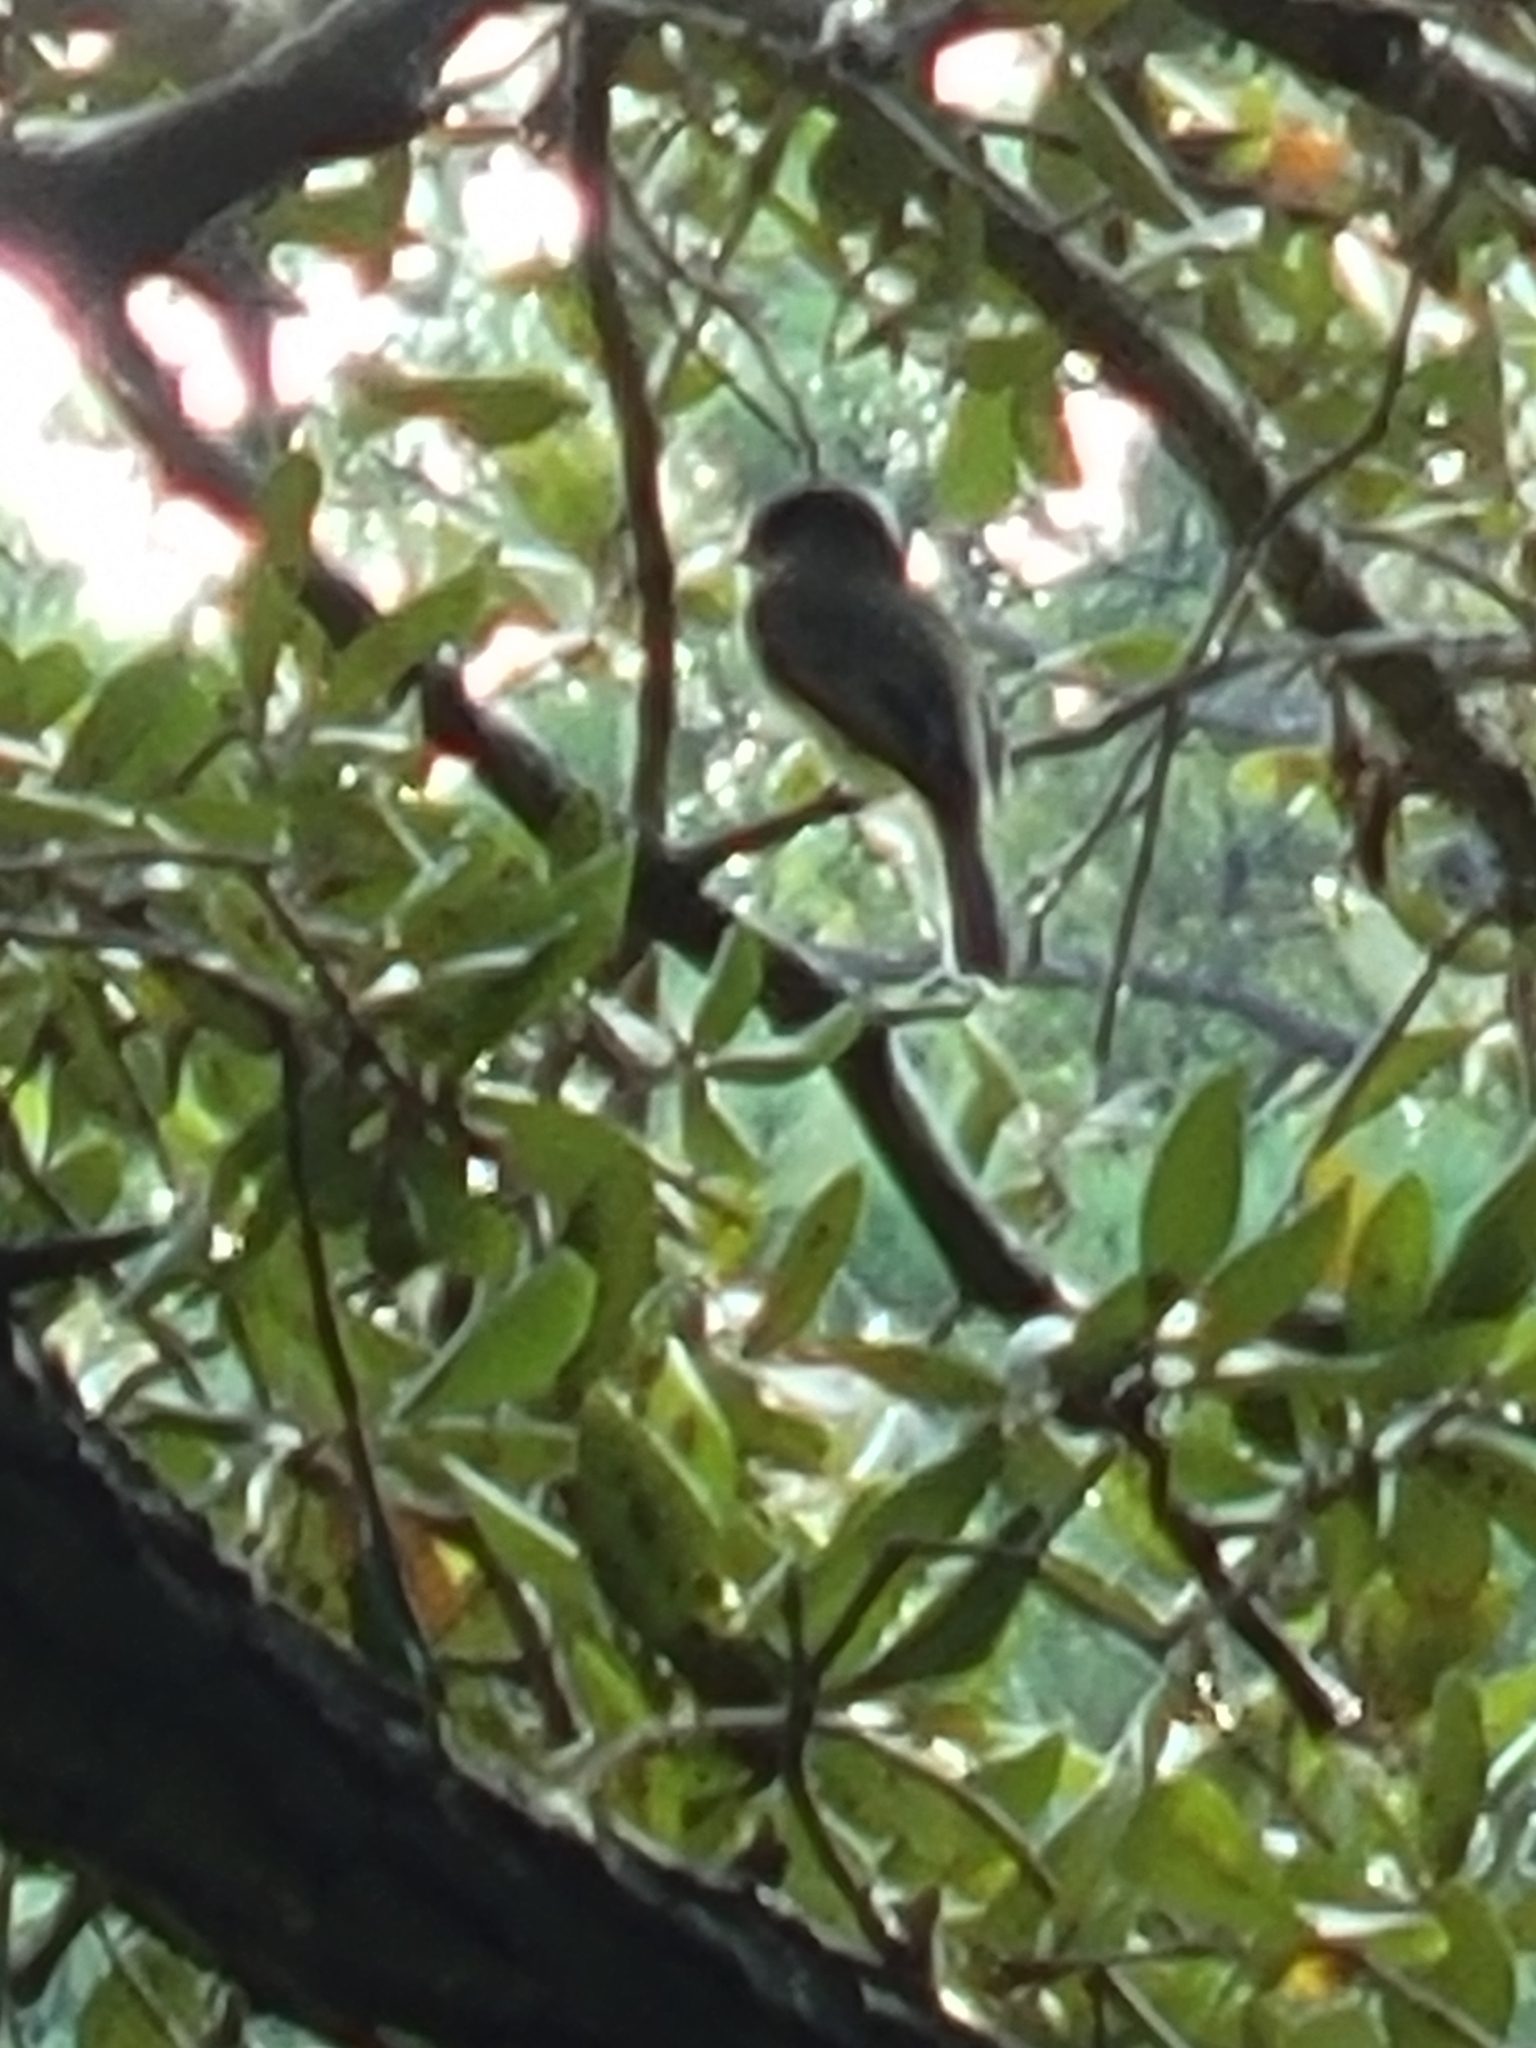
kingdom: Animalia
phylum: Chordata
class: Aves
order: Passeriformes
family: Tyrannidae
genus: Sayornis
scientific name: Sayornis phoebe
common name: Eastern phoebe
